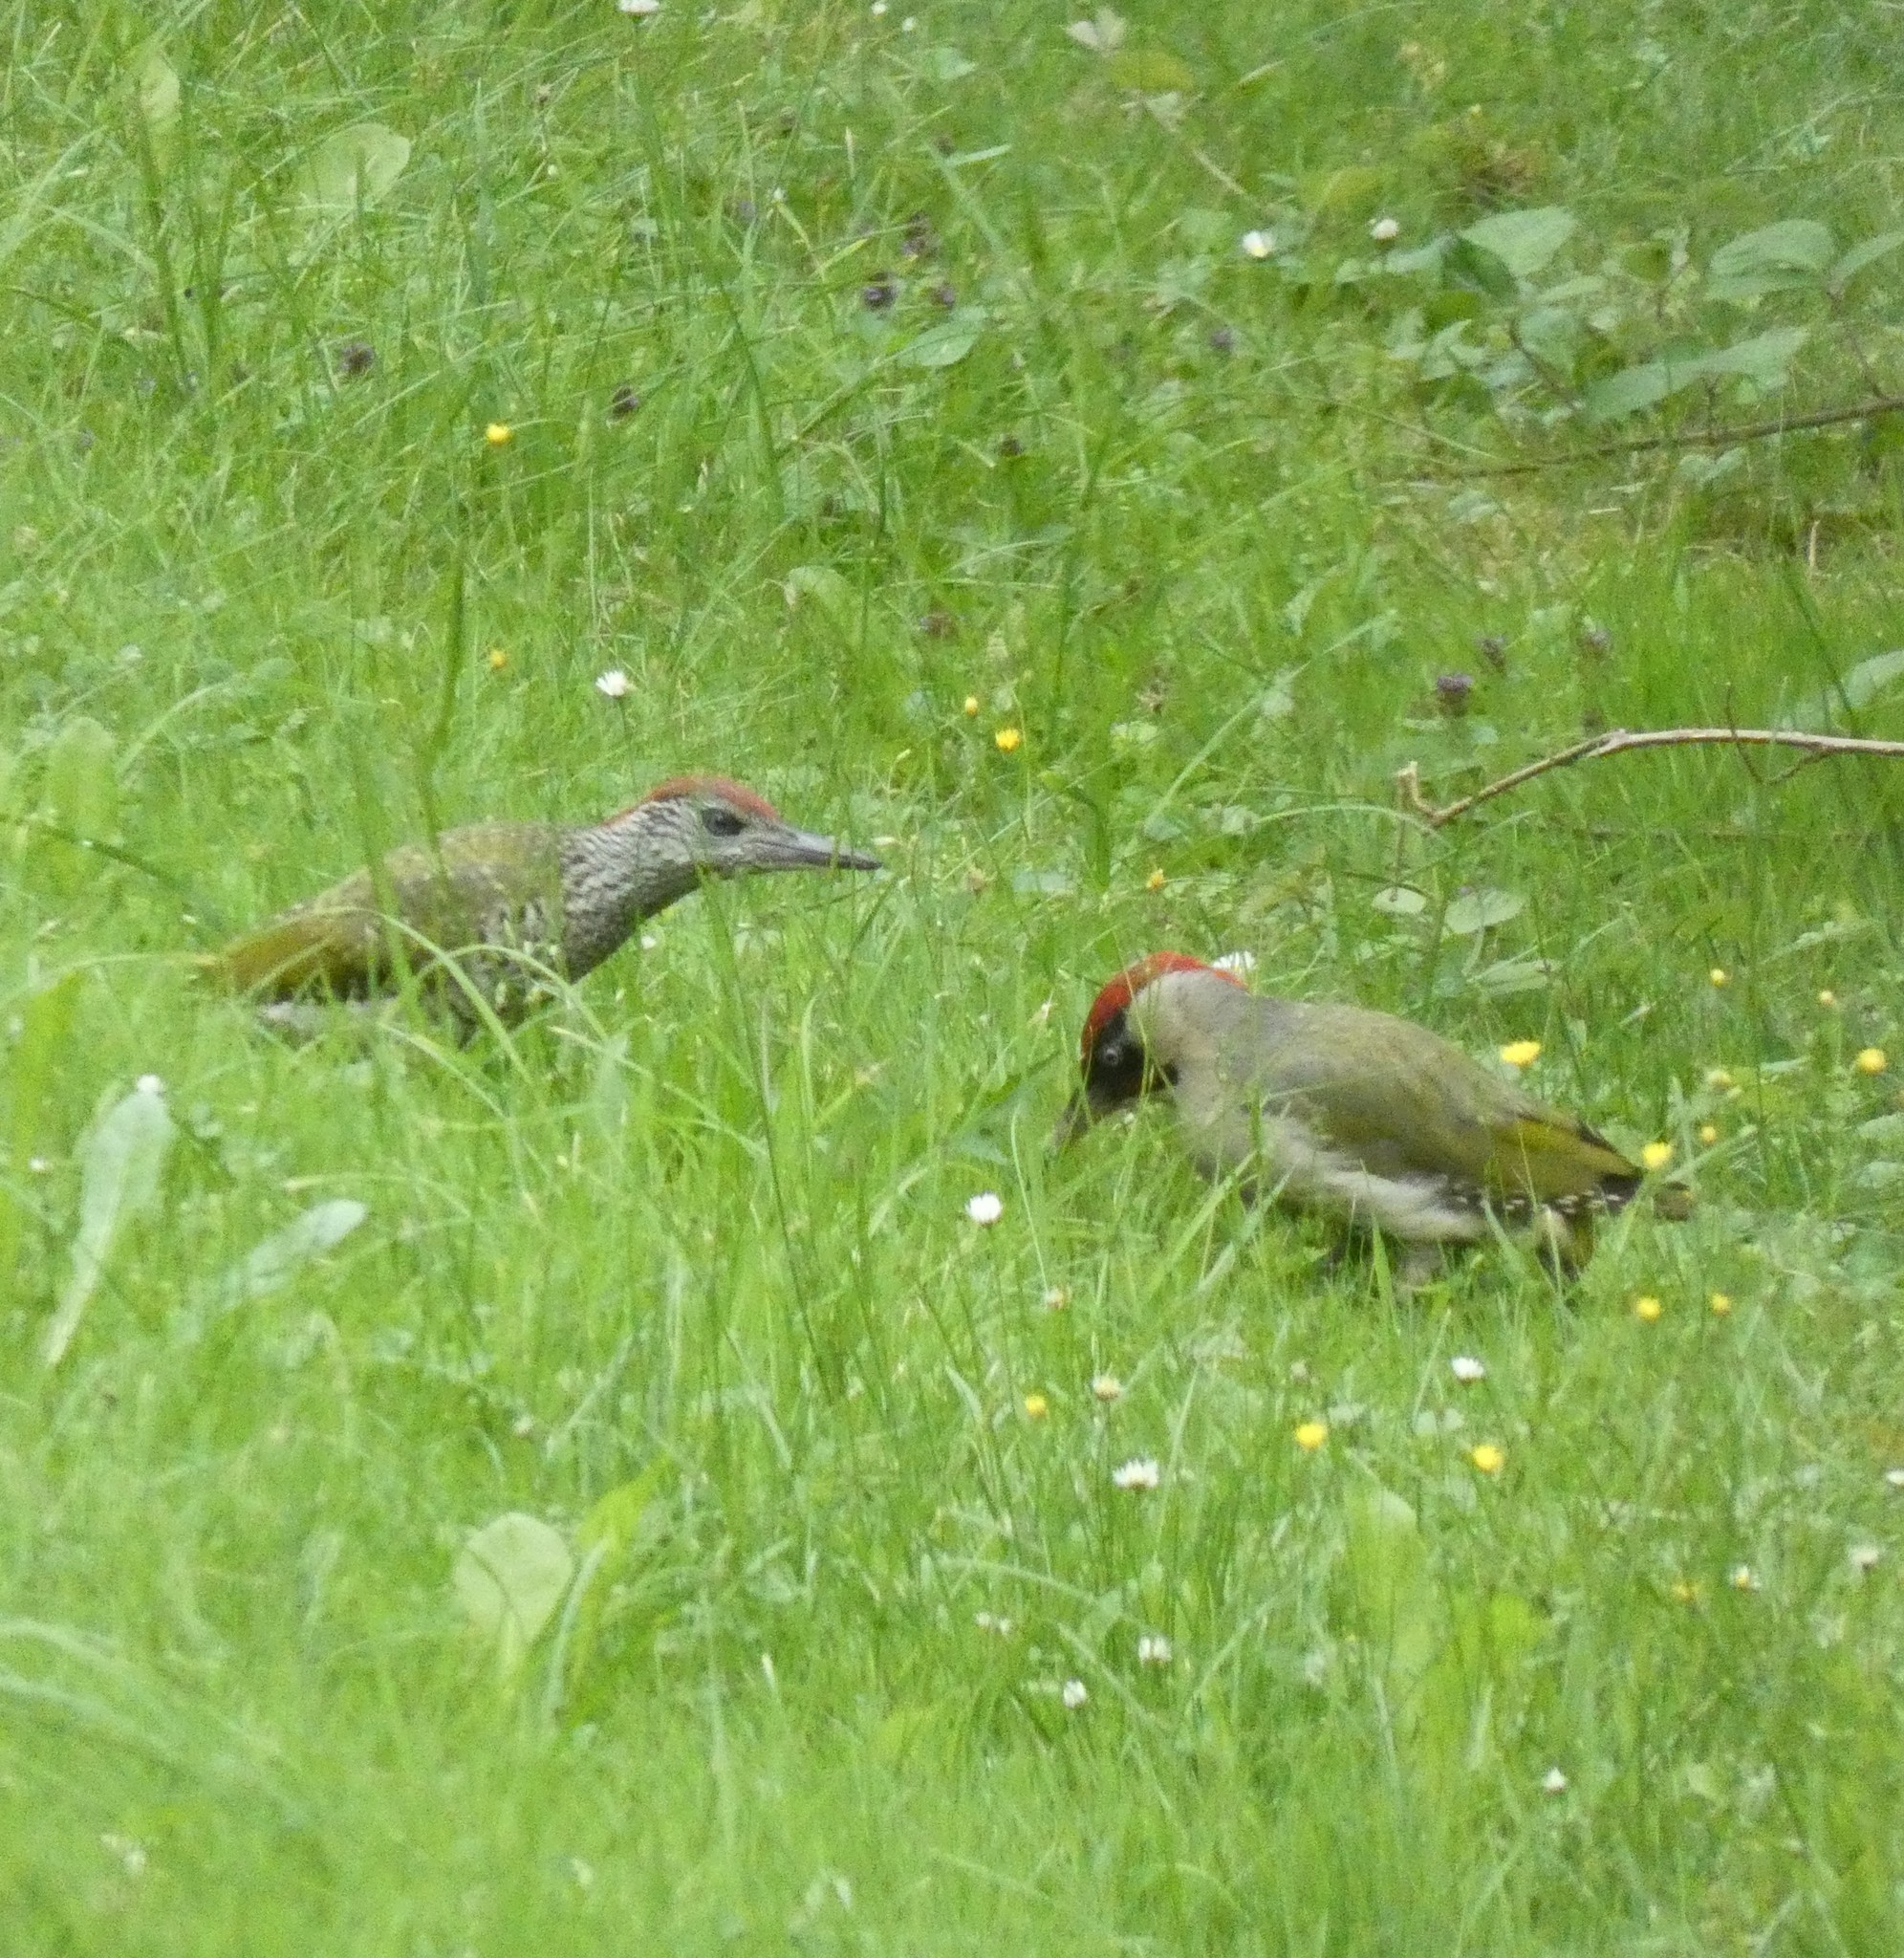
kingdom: Animalia
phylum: Chordata
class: Aves
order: Piciformes
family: Picidae
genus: Picus
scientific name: Picus viridis
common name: European green woodpecker
